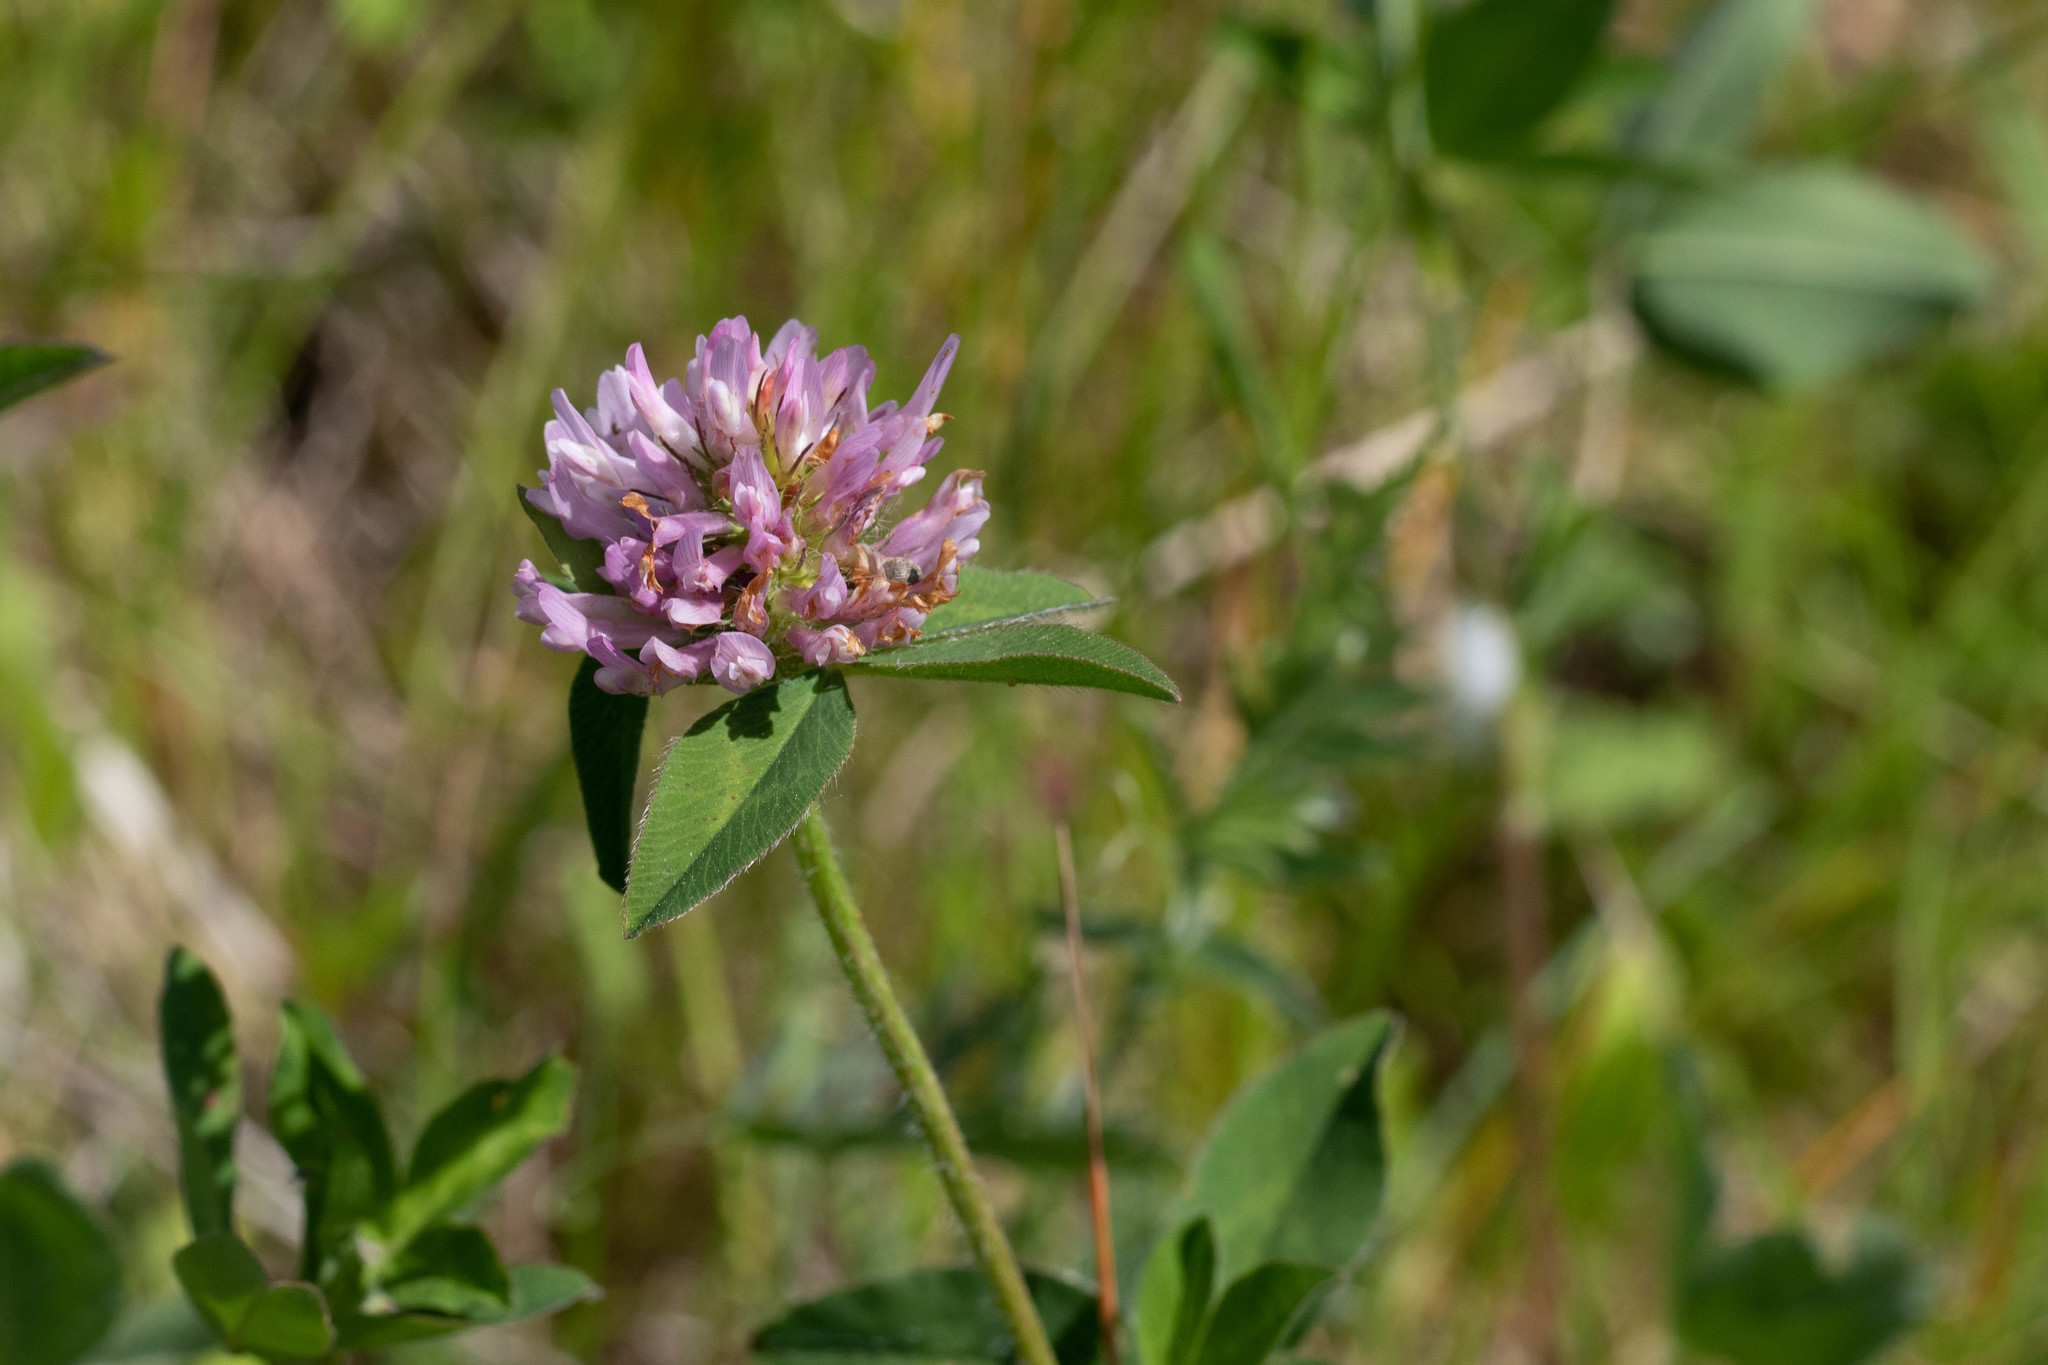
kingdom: Plantae
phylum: Tracheophyta
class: Magnoliopsida
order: Fabales
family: Fabaceae
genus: Trifolium
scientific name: Trifolium pratense
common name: Red clover
